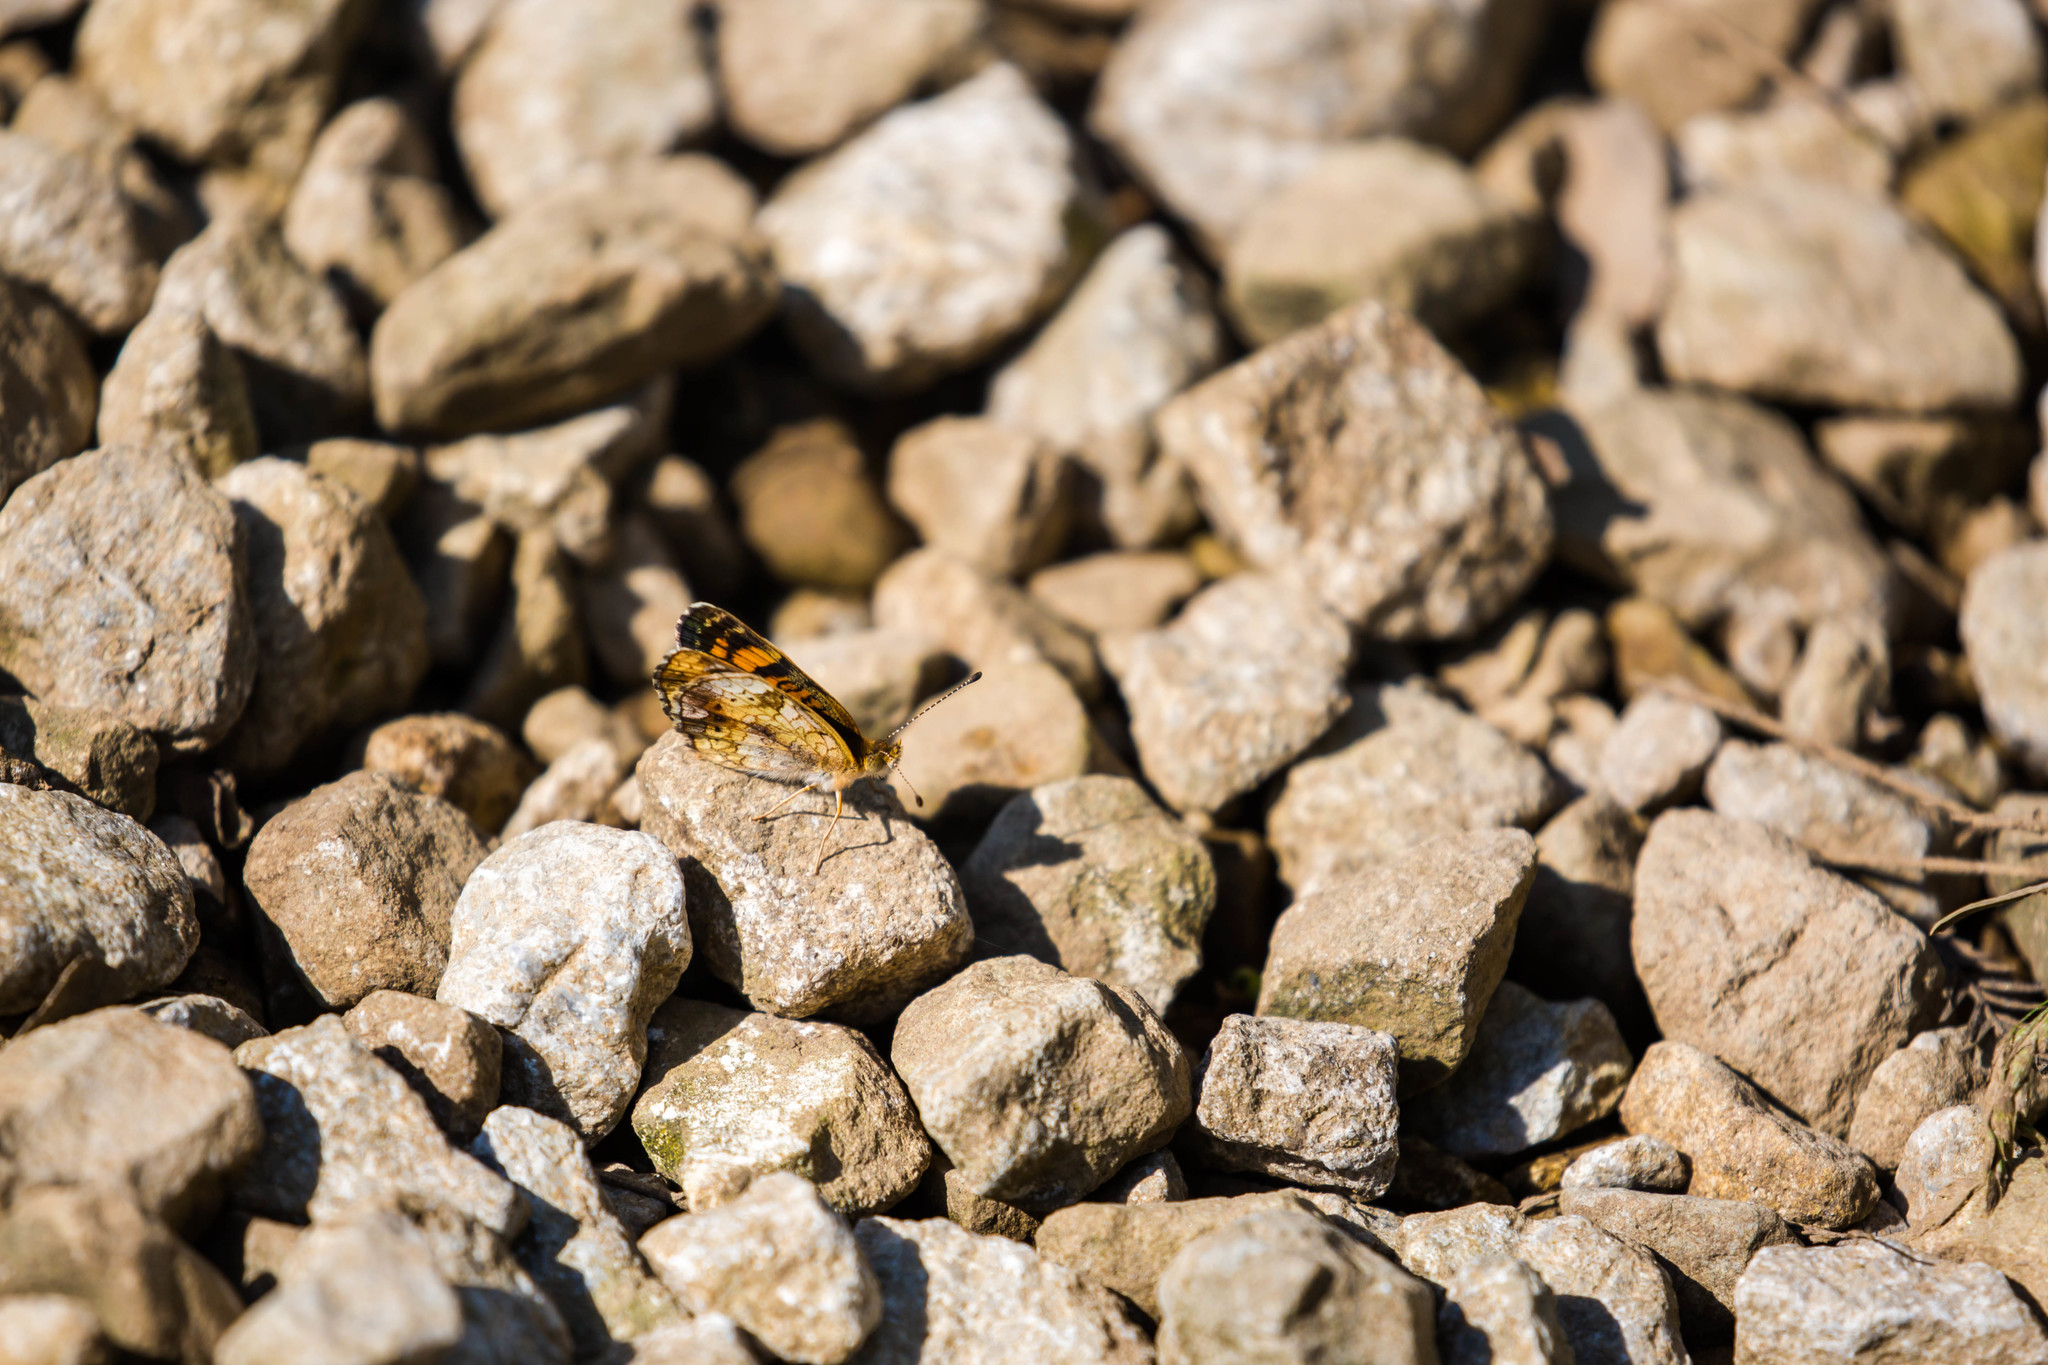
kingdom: Animalia
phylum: Arthropoda
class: Insecta
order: Lepidoptera
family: Nymphalidae
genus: Phyciodes
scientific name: Phyciodes tharos
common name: Pearl crescent
